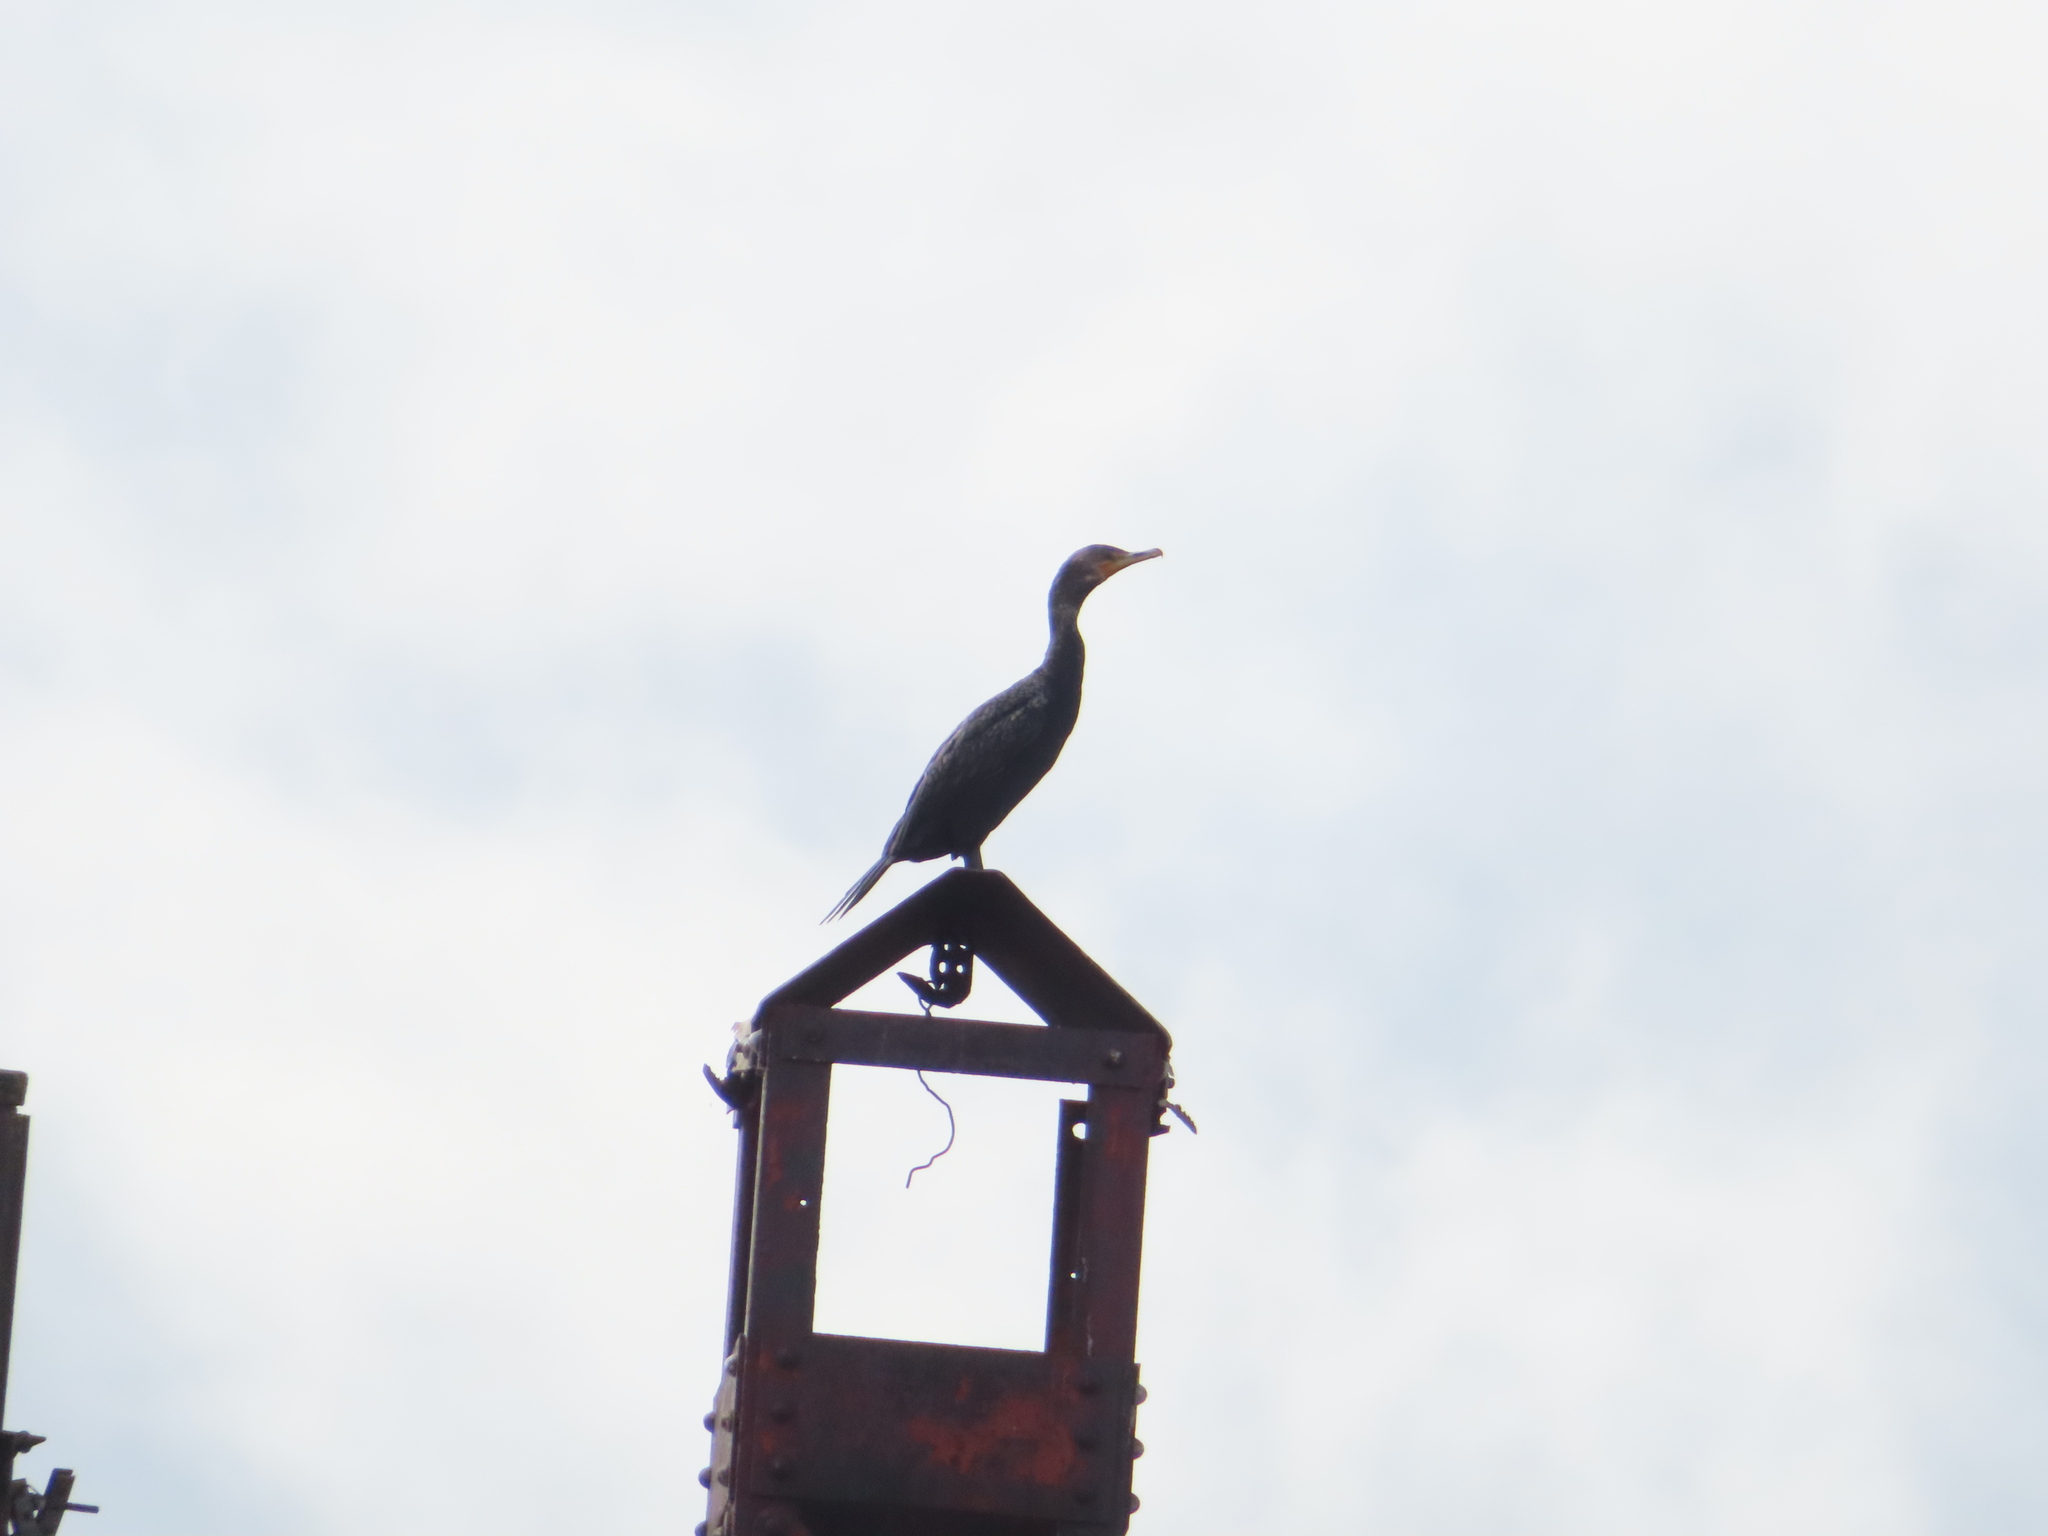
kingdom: Animalia
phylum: Chordata
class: Aves
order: Suliformes
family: Phalacrocoracidae
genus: Phalacrocorax
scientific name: Phalacrocorax auritus
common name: Double-crested cormorant
